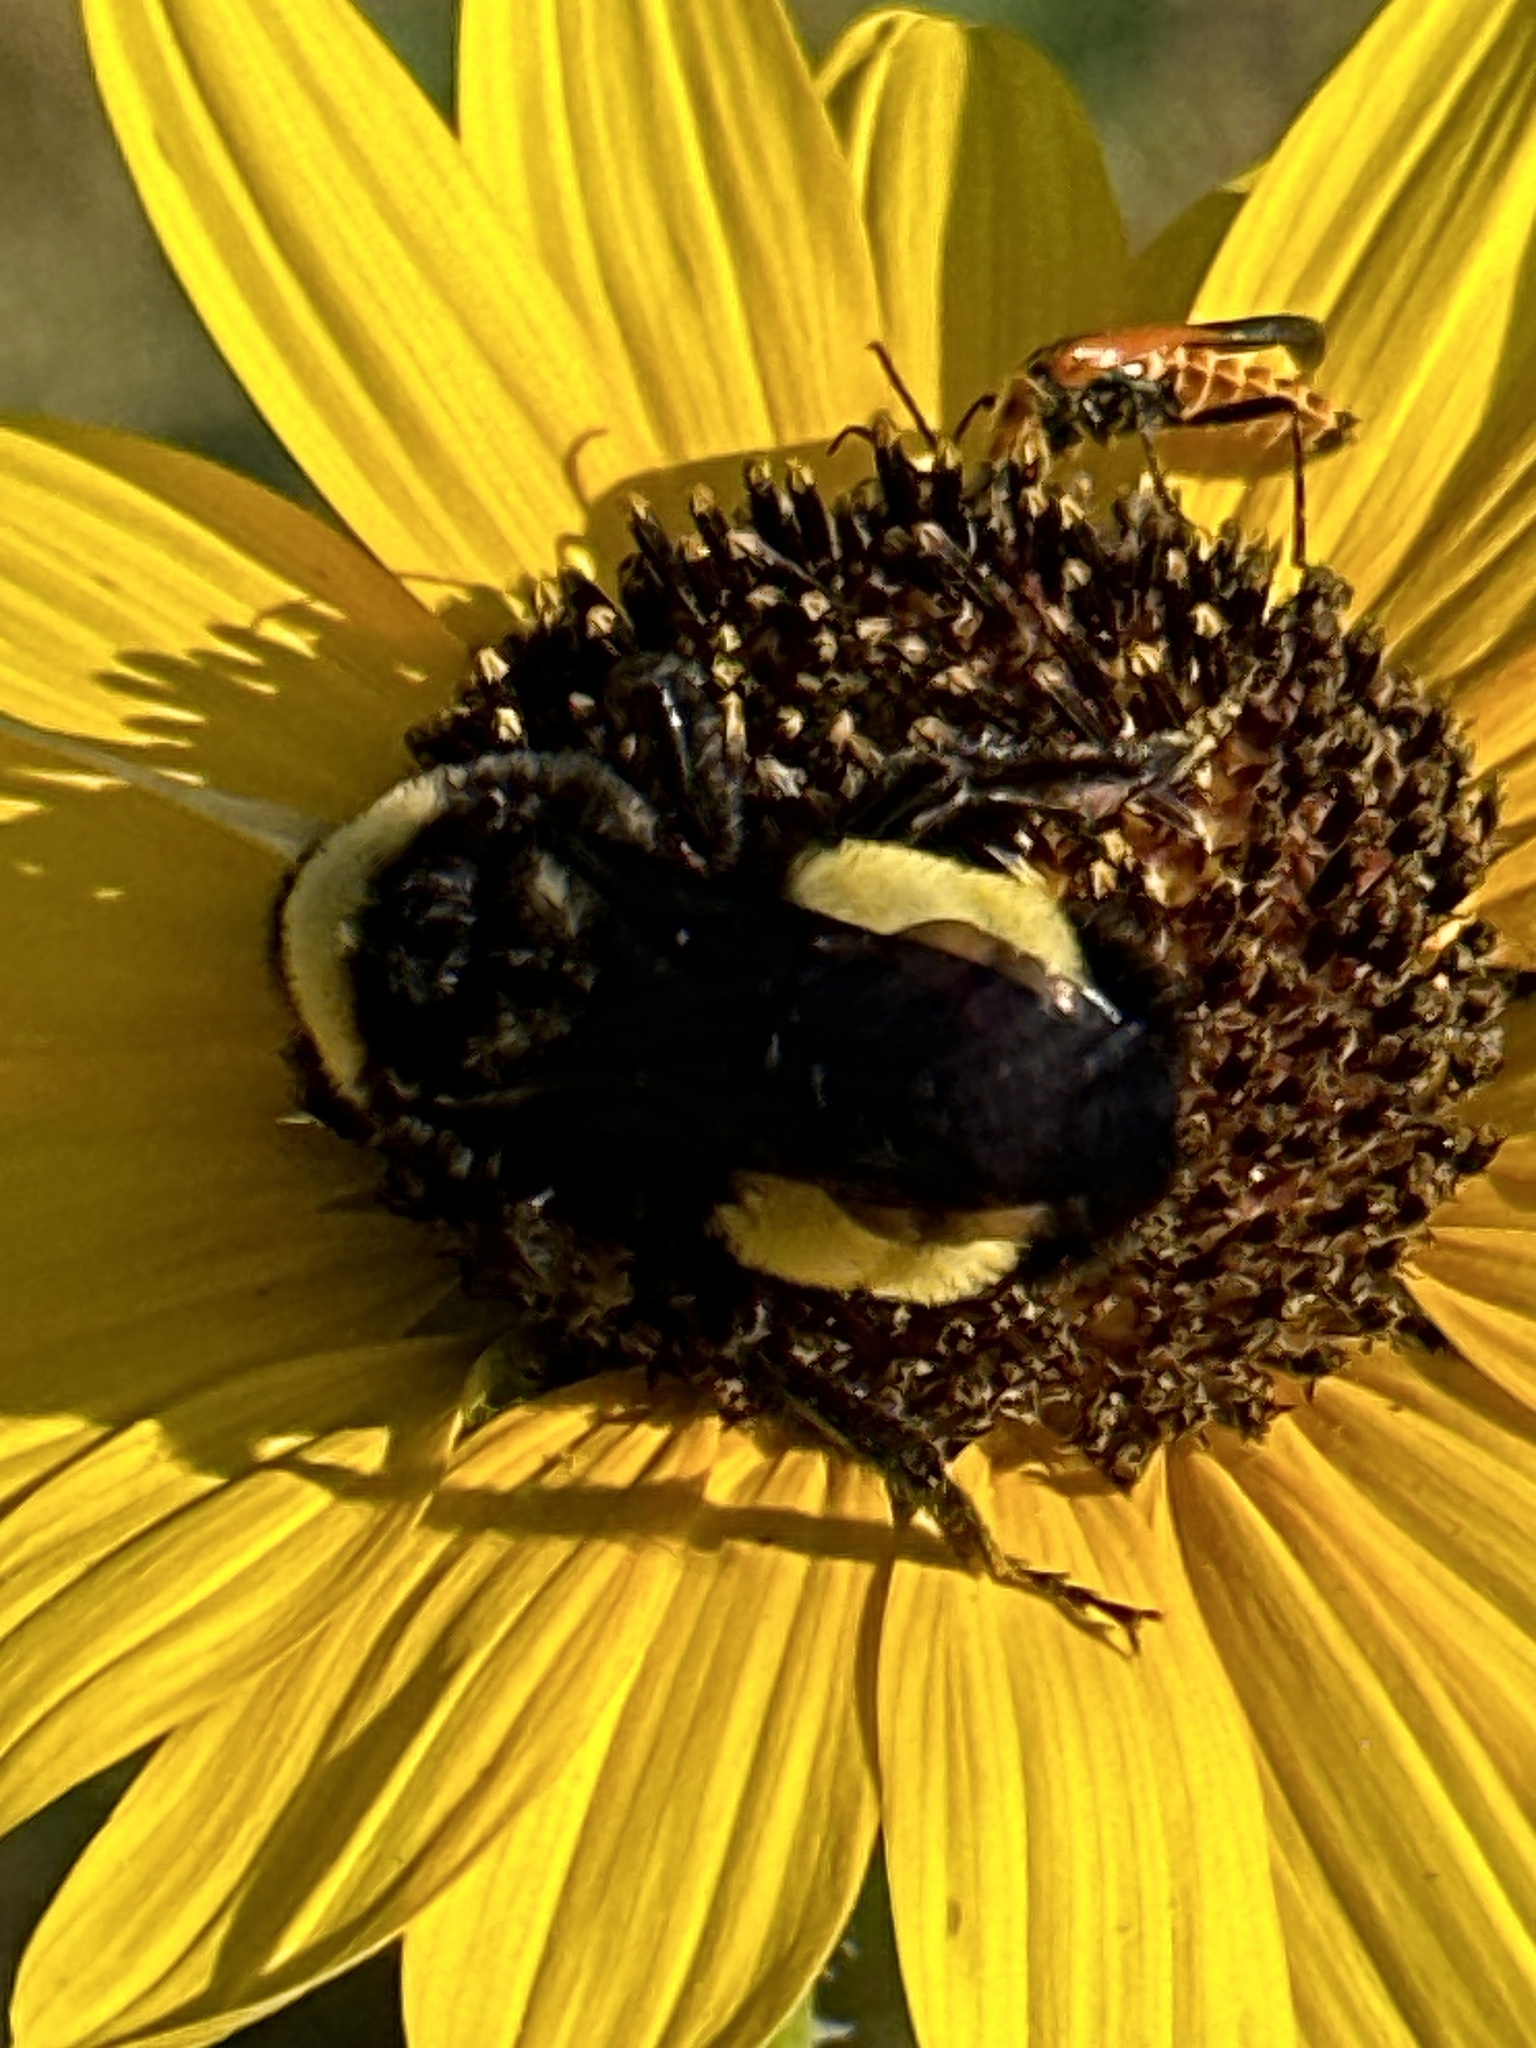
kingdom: Animalia
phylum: Arthropoda
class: Insecta
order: Hymenoptera
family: Apidae
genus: Bombus
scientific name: Bombus pensylvanicus
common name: Bumble bee
